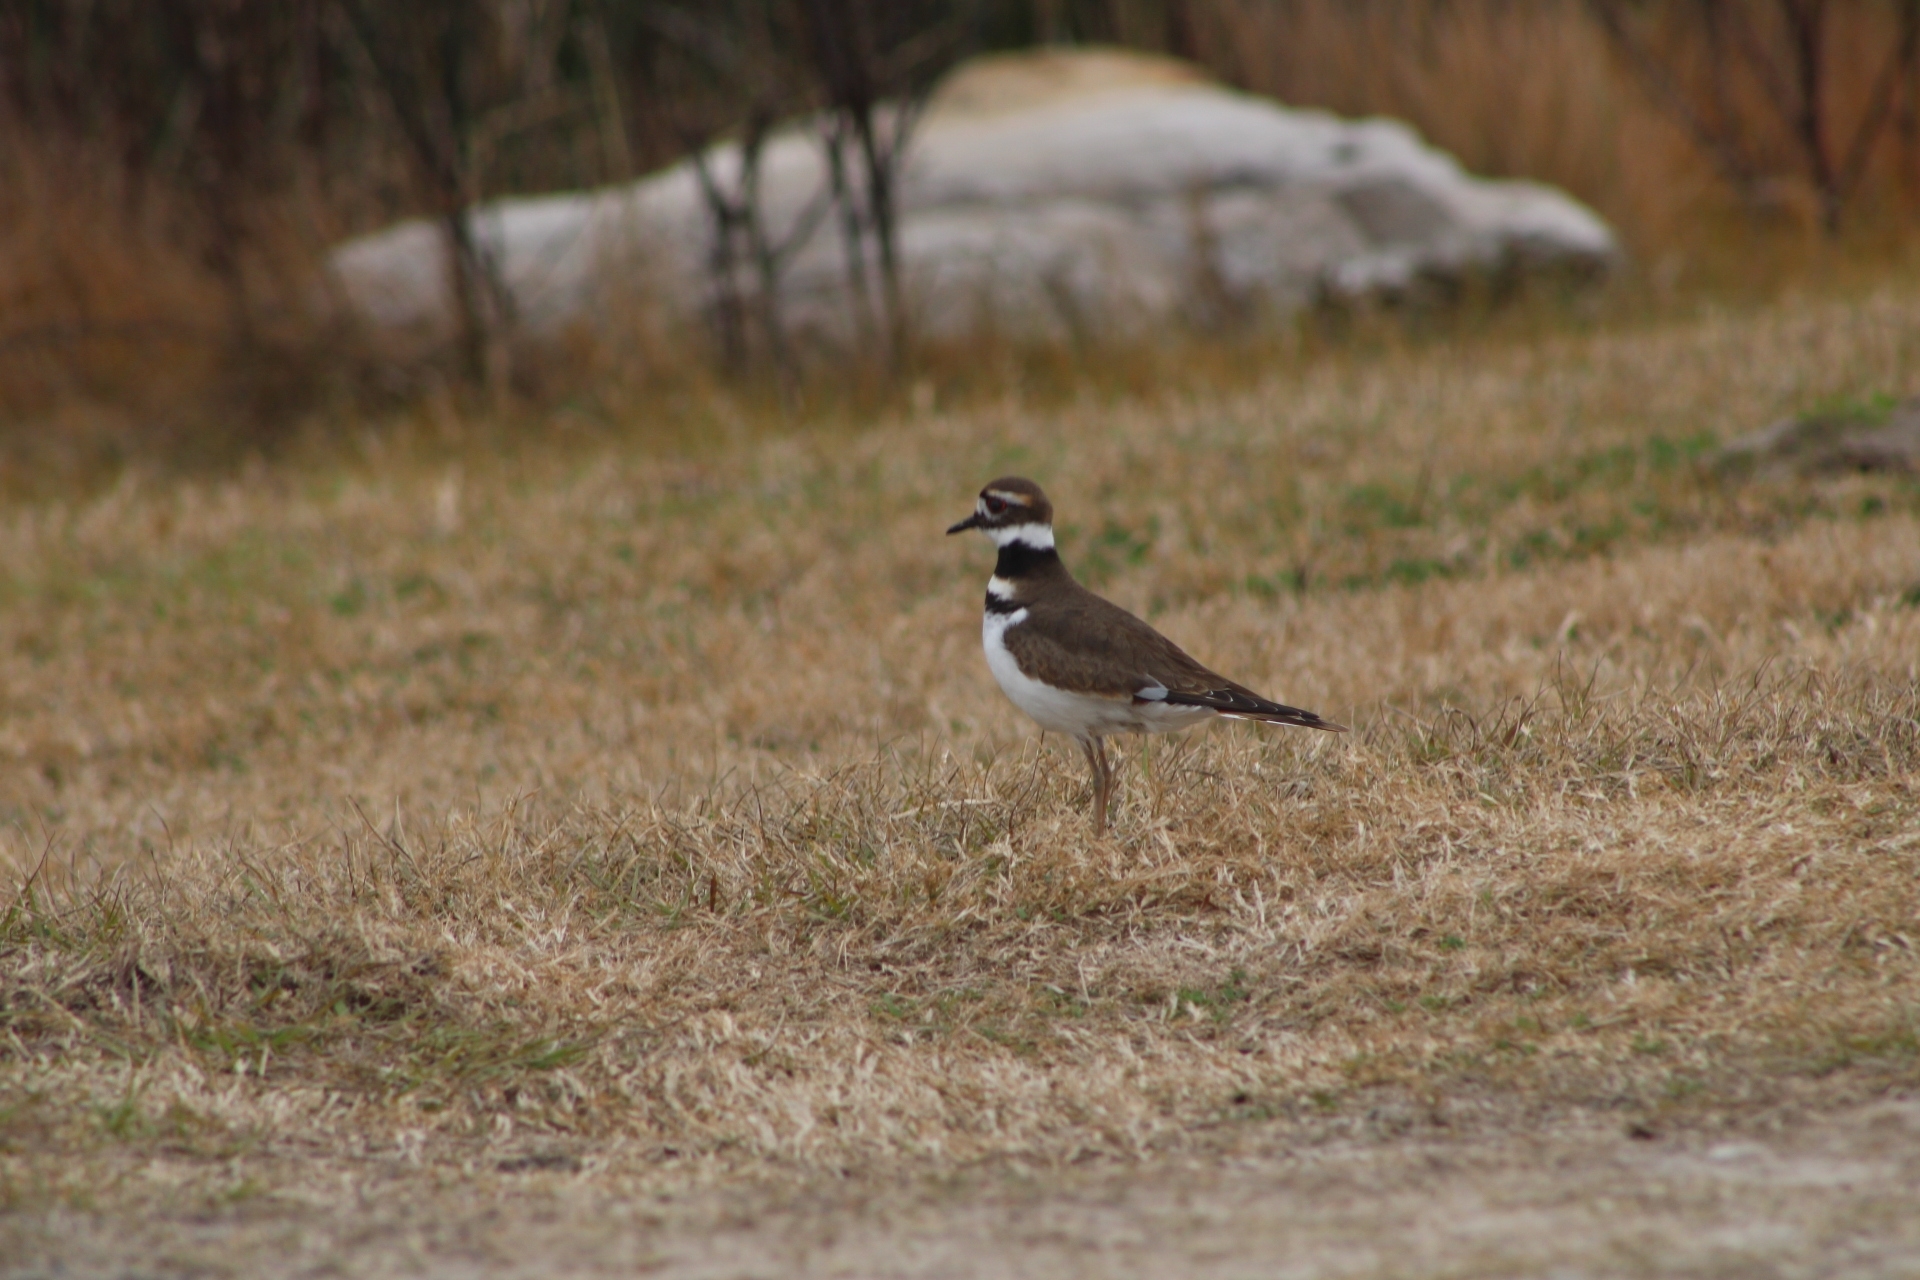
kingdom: Animalia
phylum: Chordata
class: Aves
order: Charadriiformes
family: Charadriidae
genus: Charadrius
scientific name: Charadrius vociferus
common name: Killdeer
